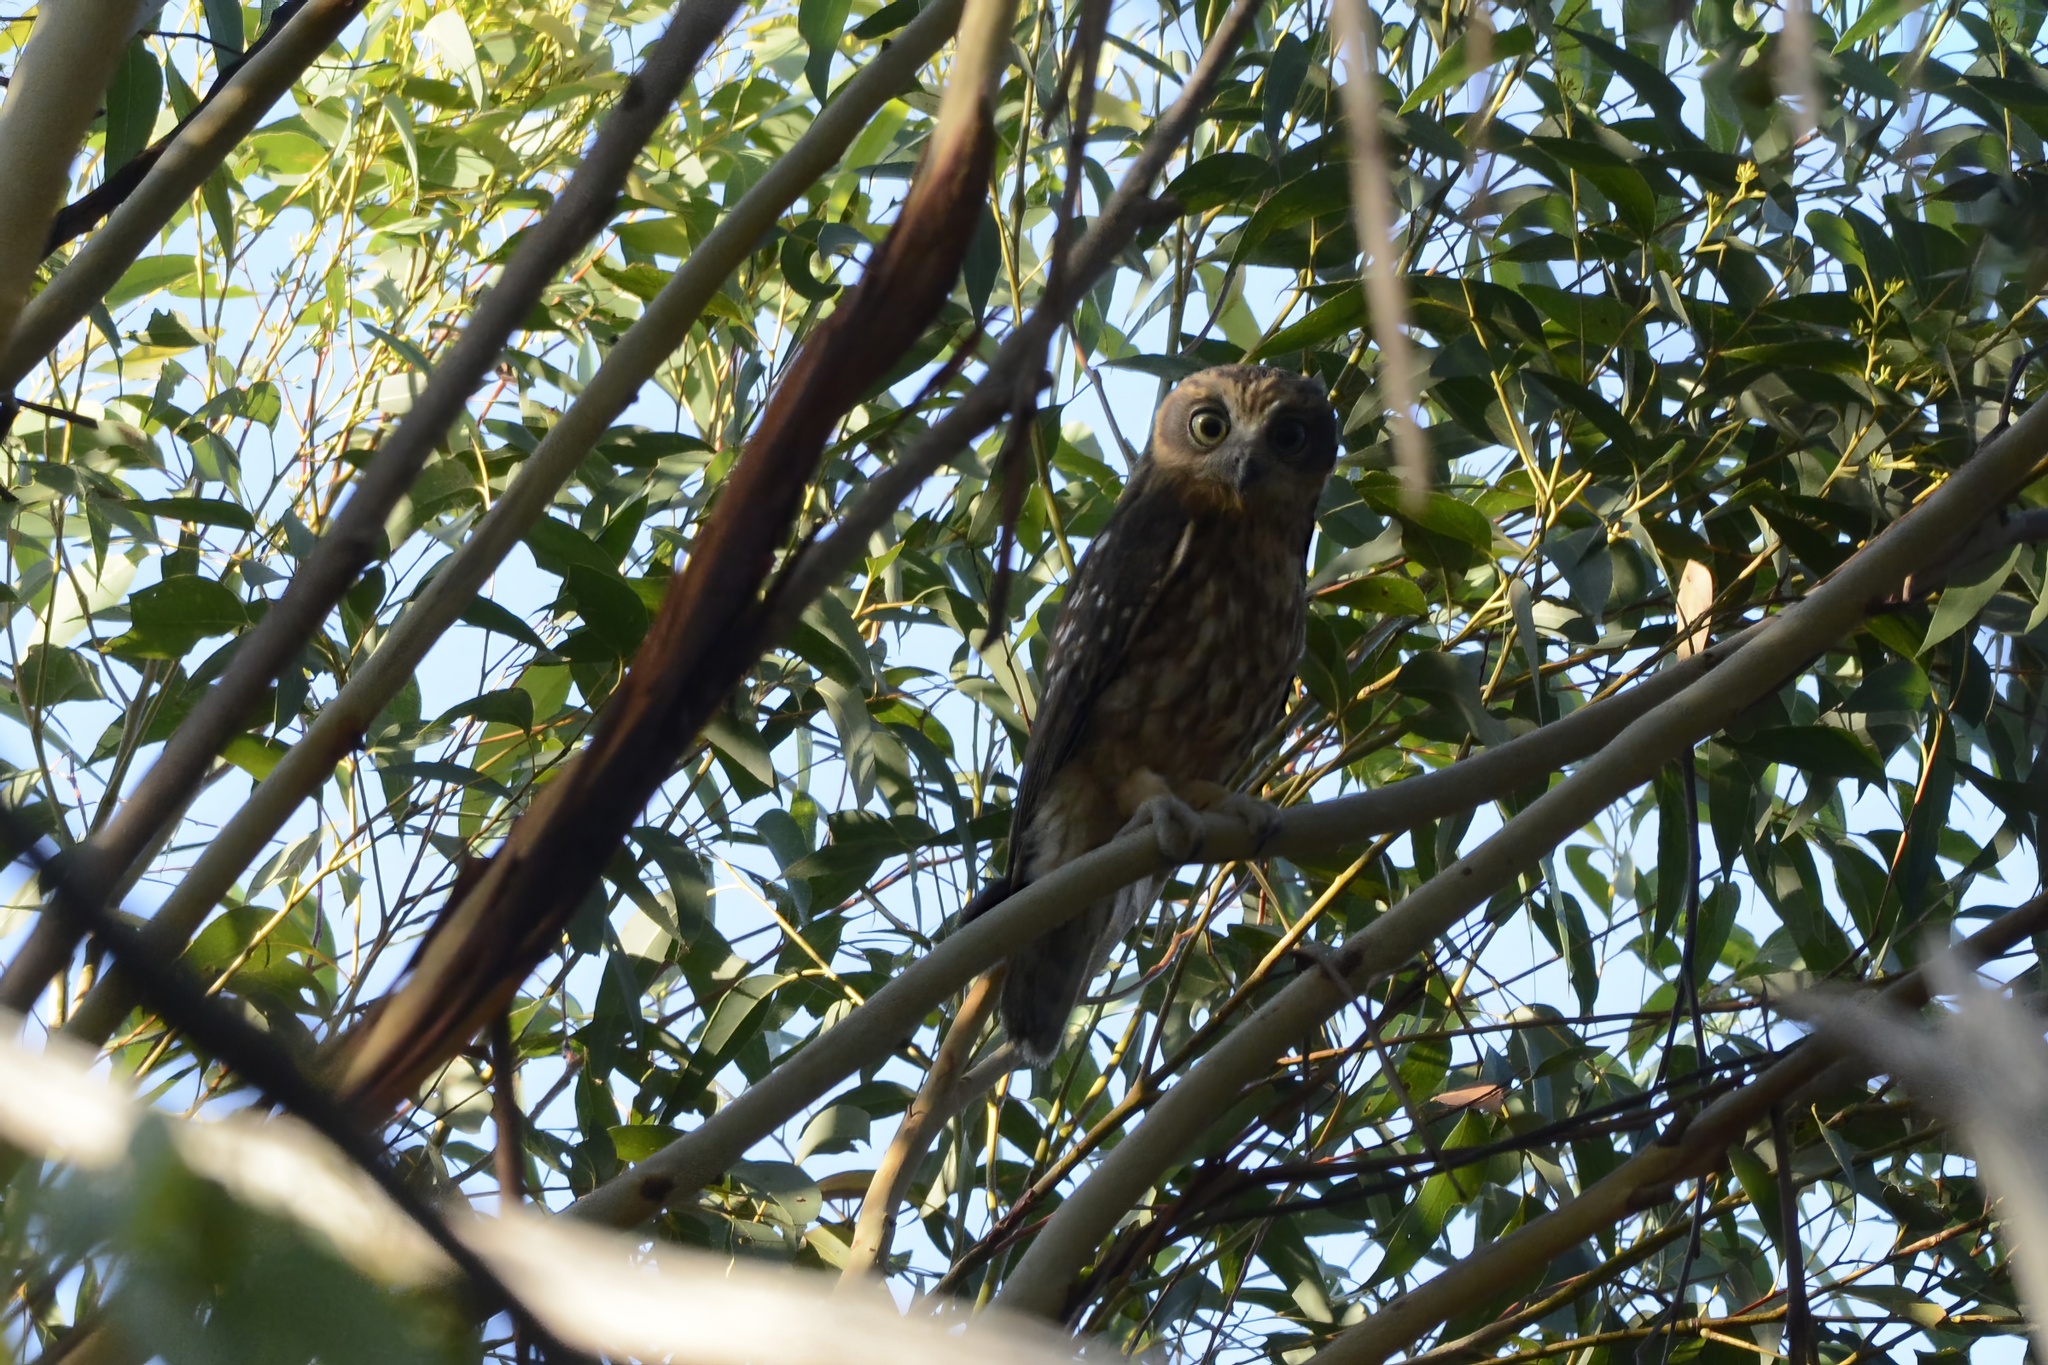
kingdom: Animalia
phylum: Chordata
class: Aves
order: Strigiformes
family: Strigidae
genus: Ninox
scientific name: Ninox boobook
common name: Southern boobook
